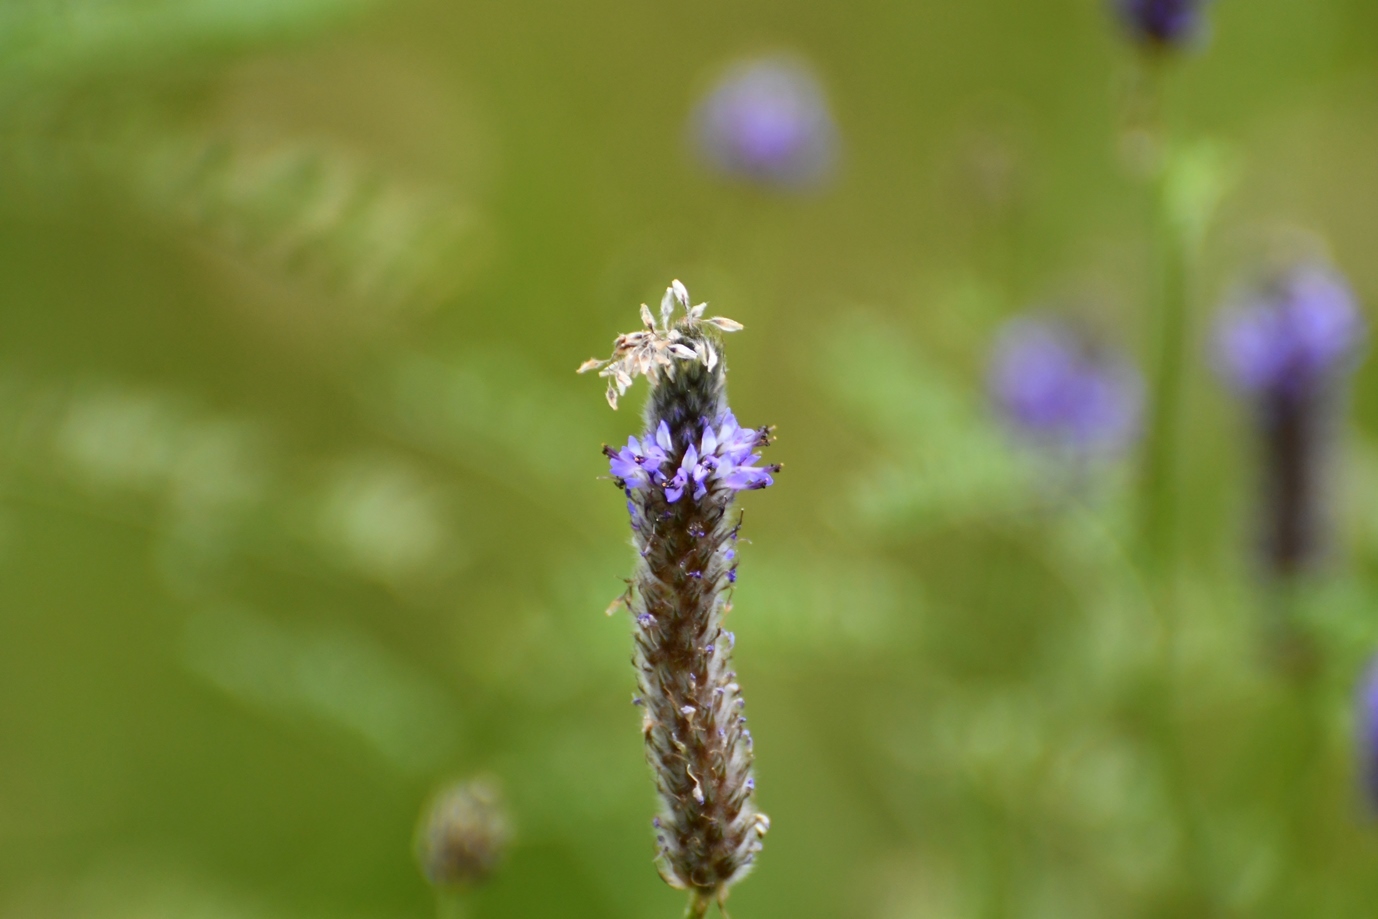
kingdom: Plantae
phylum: Tracheophyta
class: Magnoliopsida
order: Fabales
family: Fabaceae
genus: Dalea
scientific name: Dalea leporina
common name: Foxtail dalea
